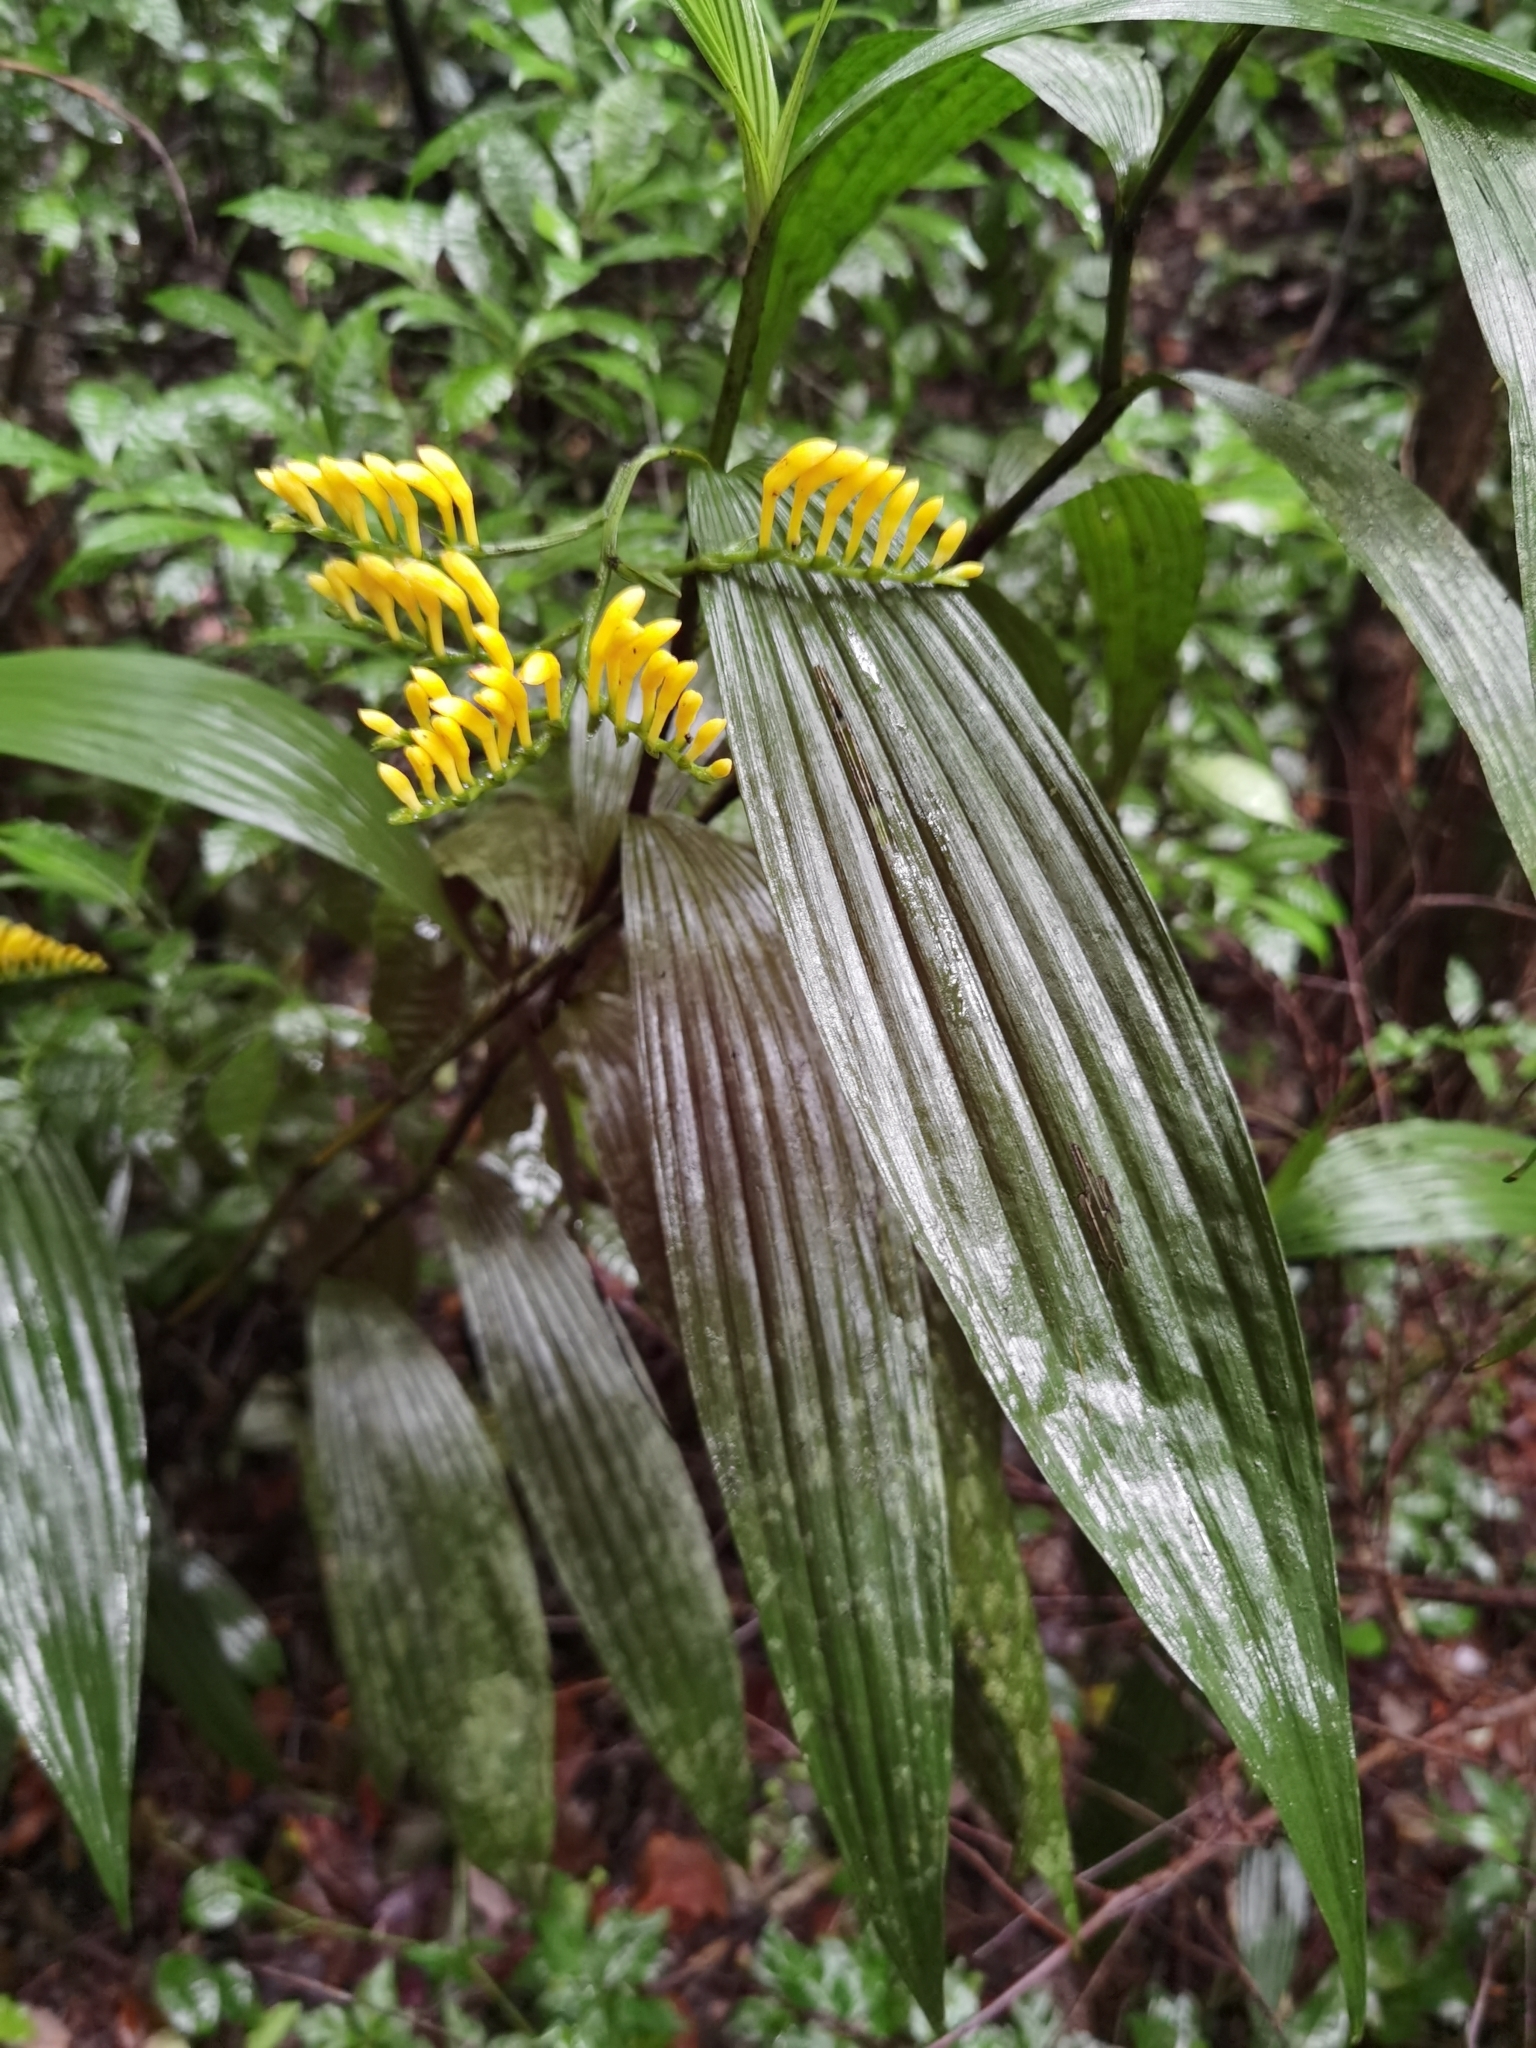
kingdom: Plantae
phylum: Tracheophyta
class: Liliopsida
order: Asparagales
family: Orchidaceae
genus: Corymborkis
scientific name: Corymborkis flava
